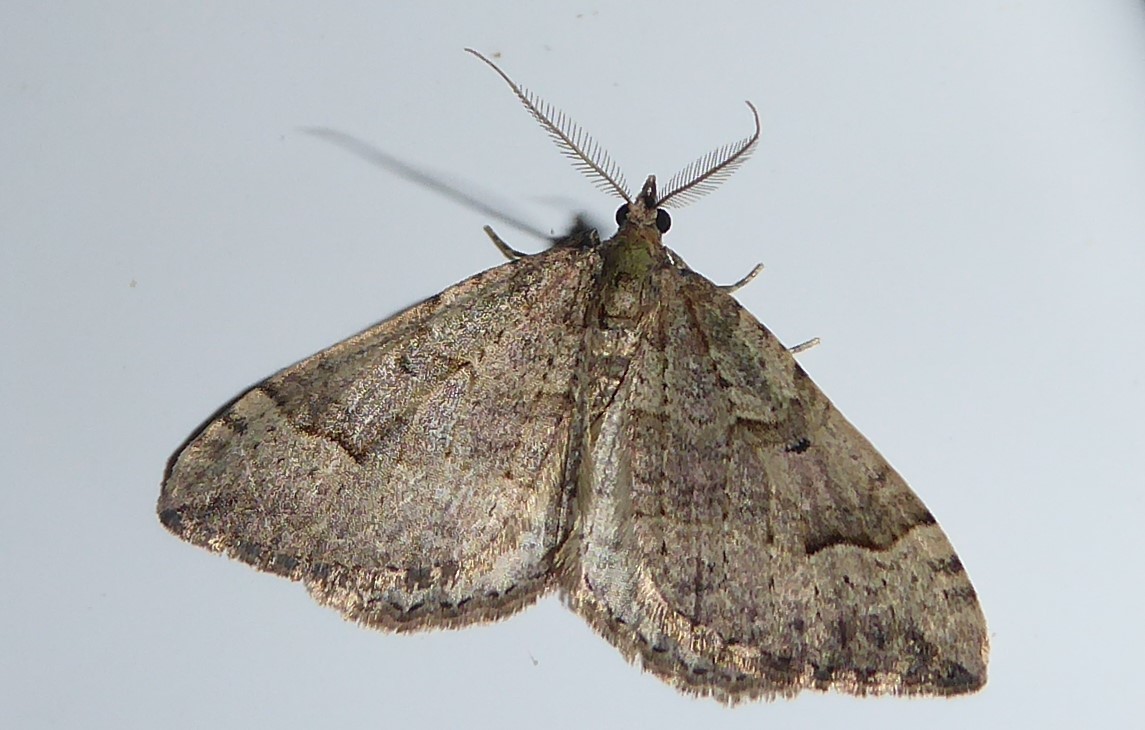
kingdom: Animalia
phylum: Arthropoda
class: Insecta
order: Lepidoptera
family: Geometridae
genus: Epyaxa
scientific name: Epyaxa rosearia
